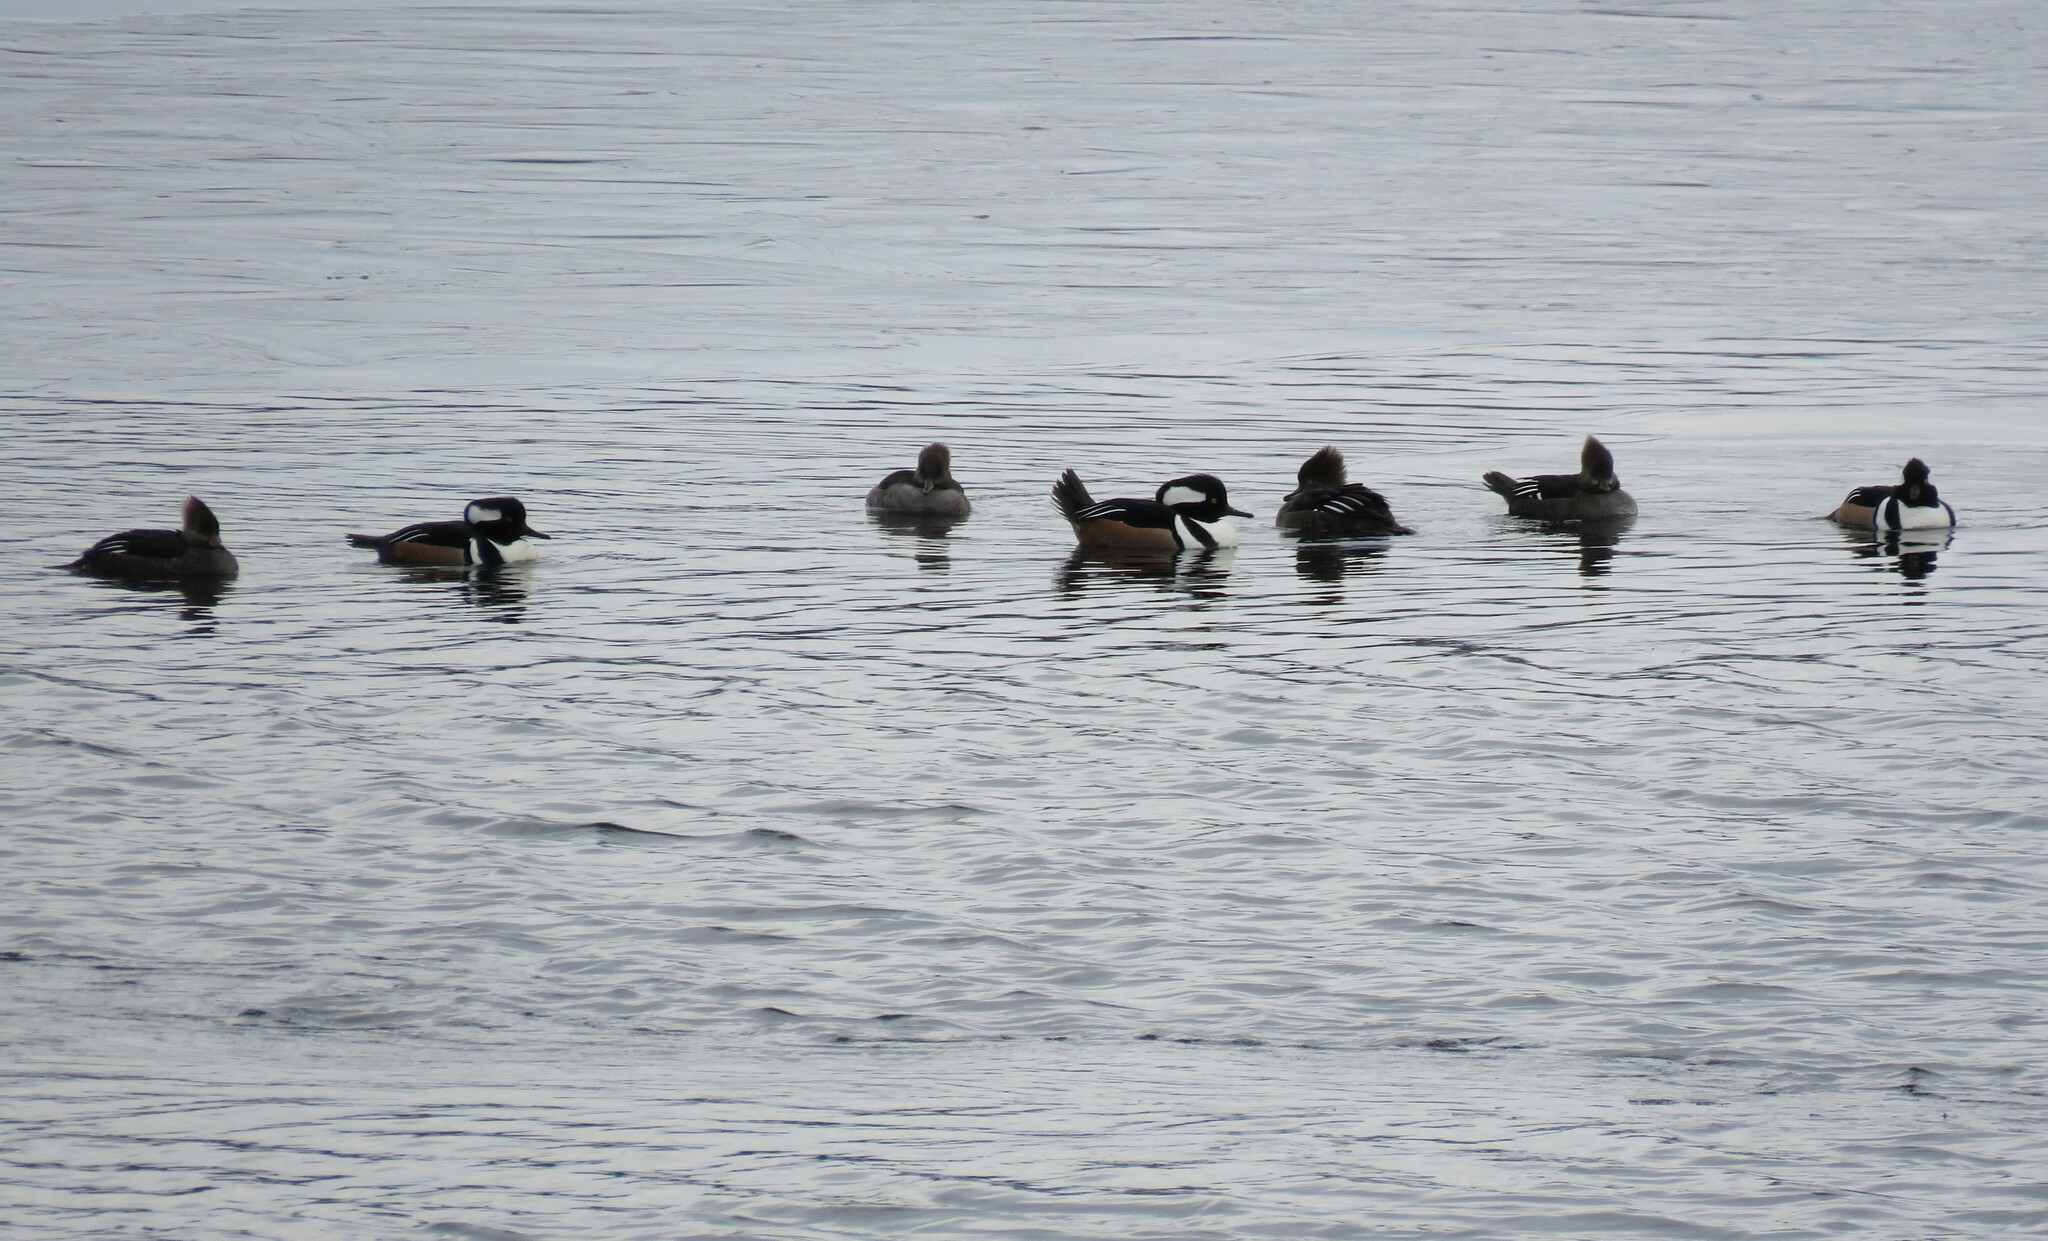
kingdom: Animalia
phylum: Chordata
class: Aves
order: Anseriformes
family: Anatidae
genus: Lophodytes
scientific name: Lophodytes cucullatus
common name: Hooded merganser
